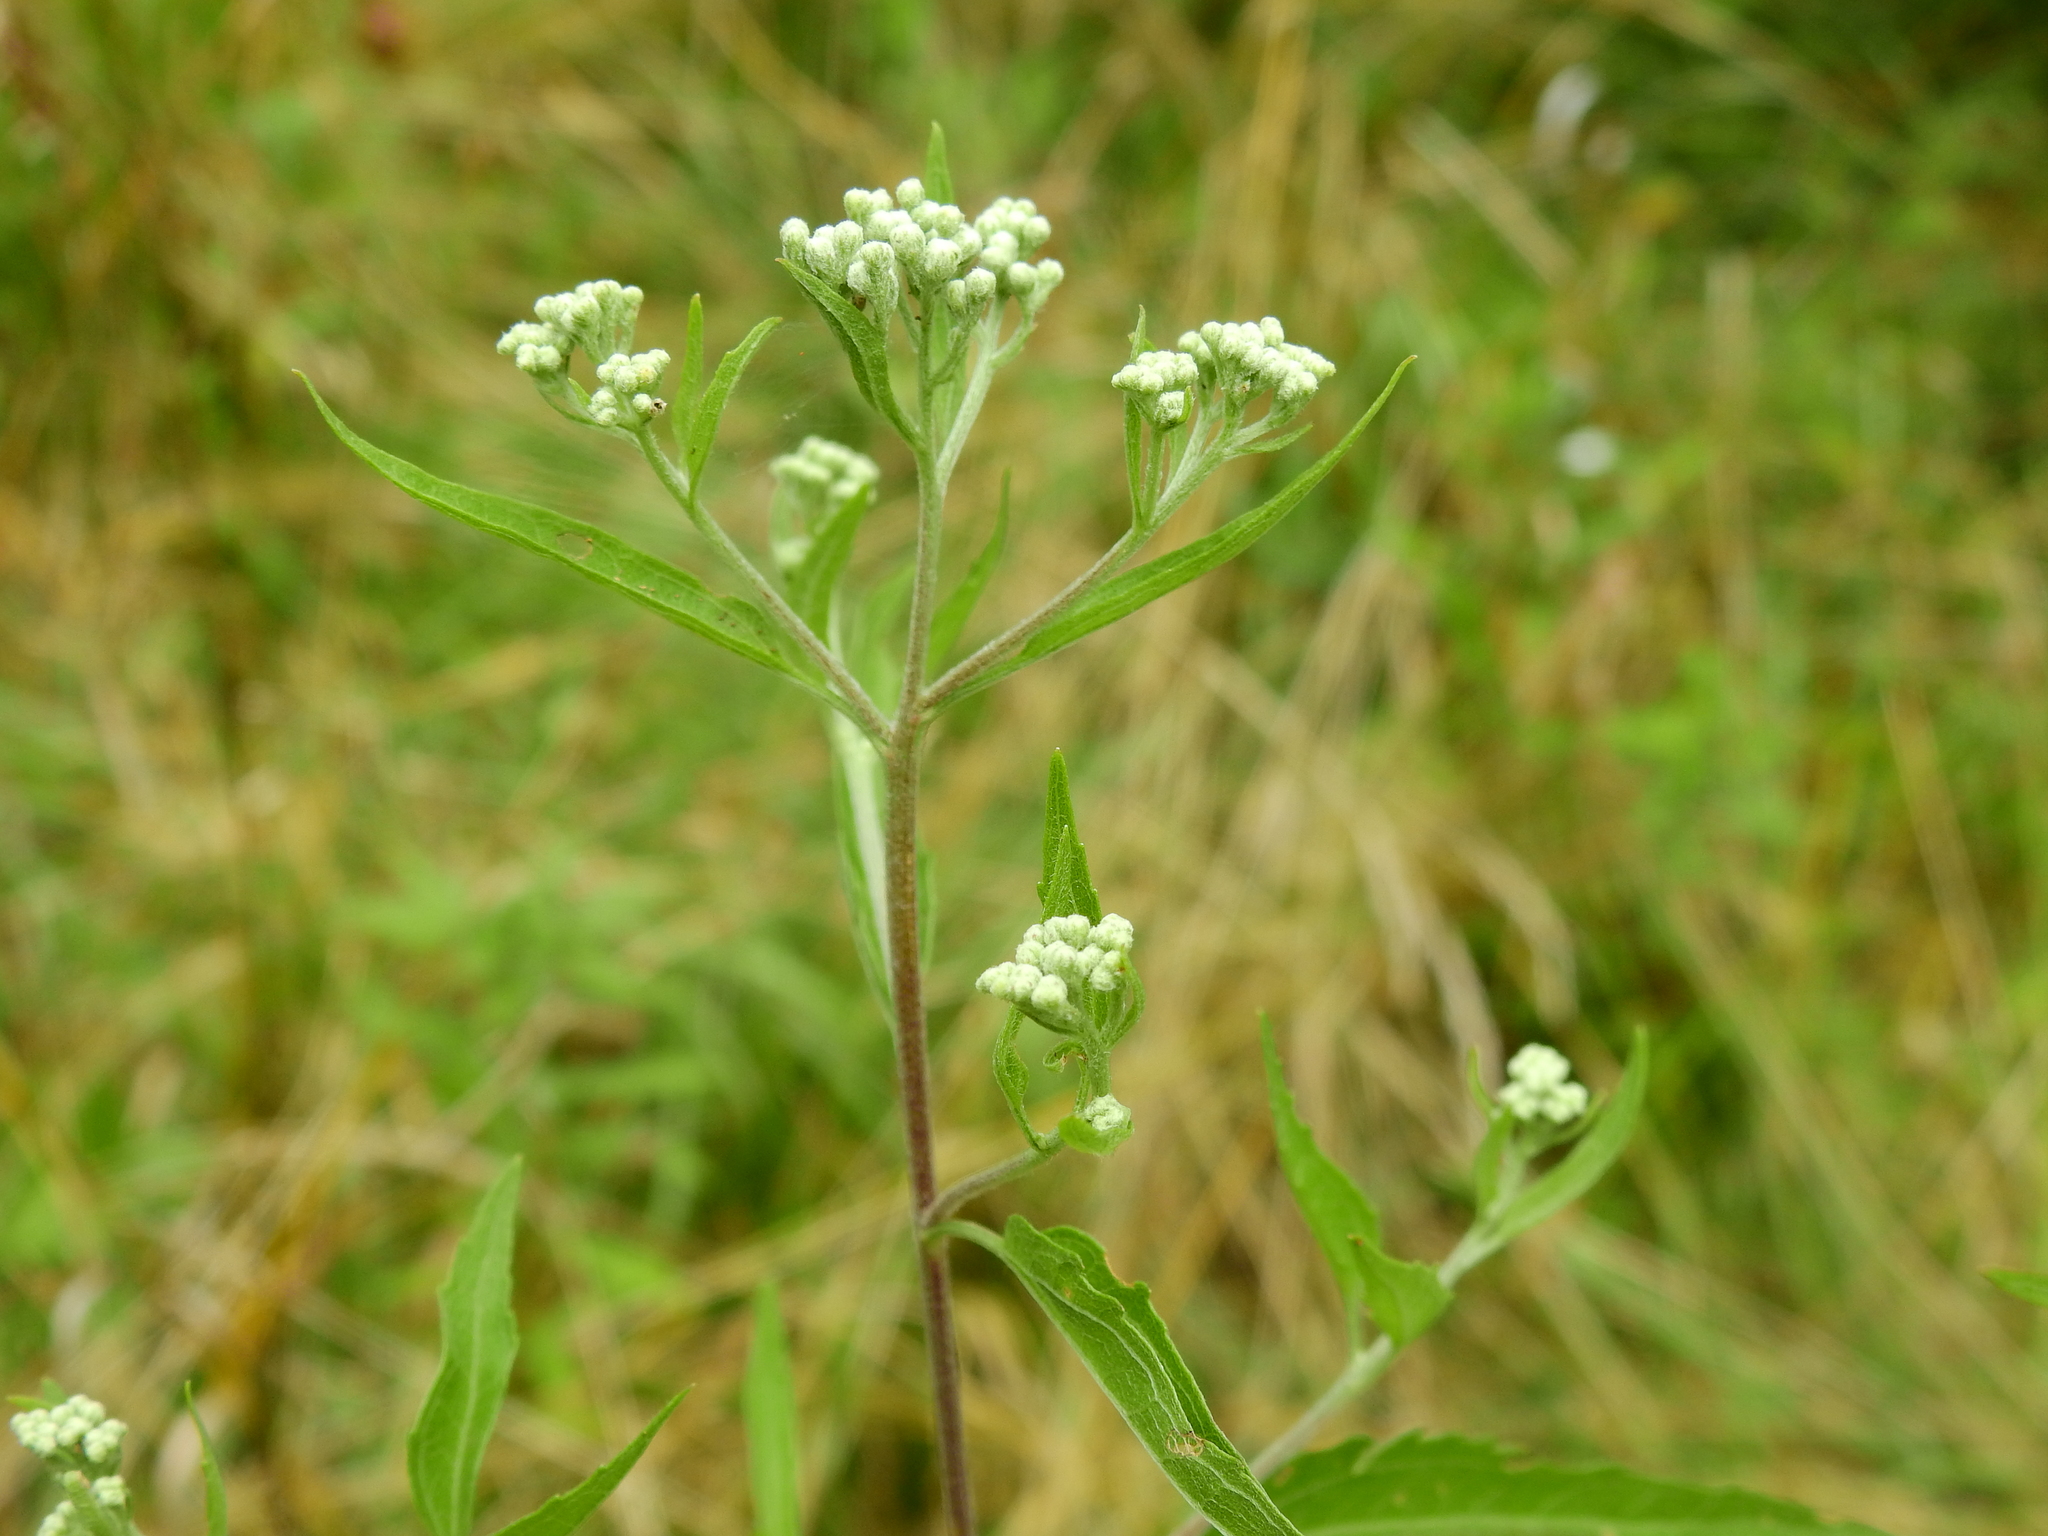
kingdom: Plantae
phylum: Tracheophyta
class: Magnoliopsida
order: Asterales
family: Asteraceae
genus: Eupatorium
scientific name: Eupatorium serotinum
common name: Late boneset
